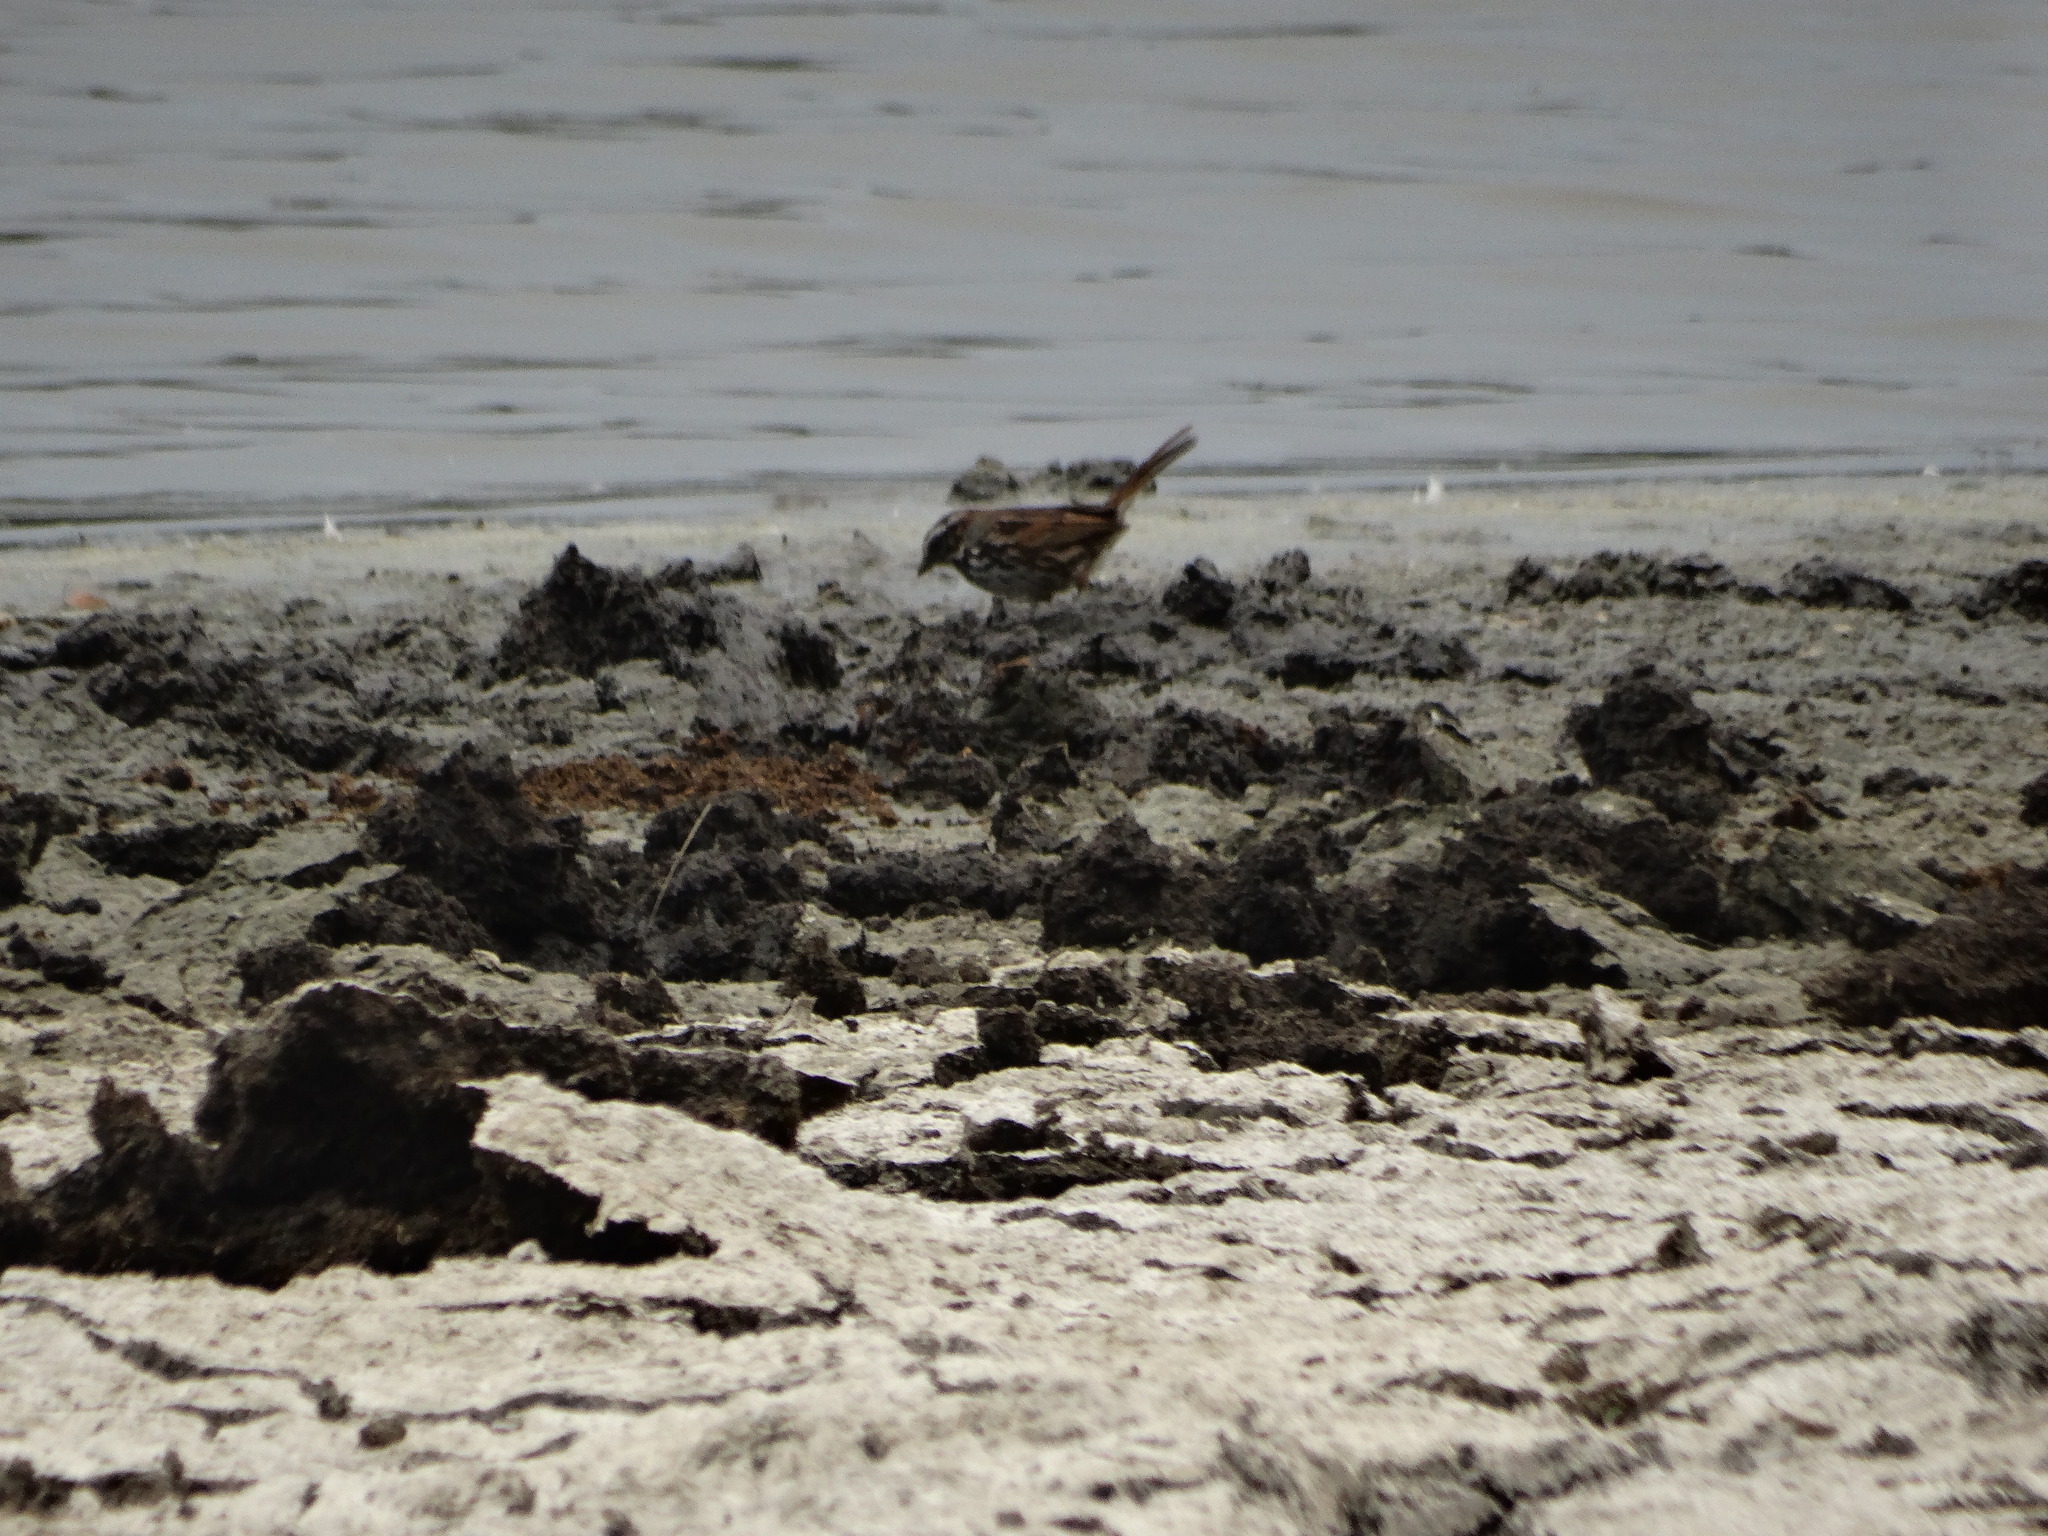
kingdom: Animalia
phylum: Chordata
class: Aves
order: Passeriformes
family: Passerellidae
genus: Melospiza
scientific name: Melospiza melodia
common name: Song sparrow
